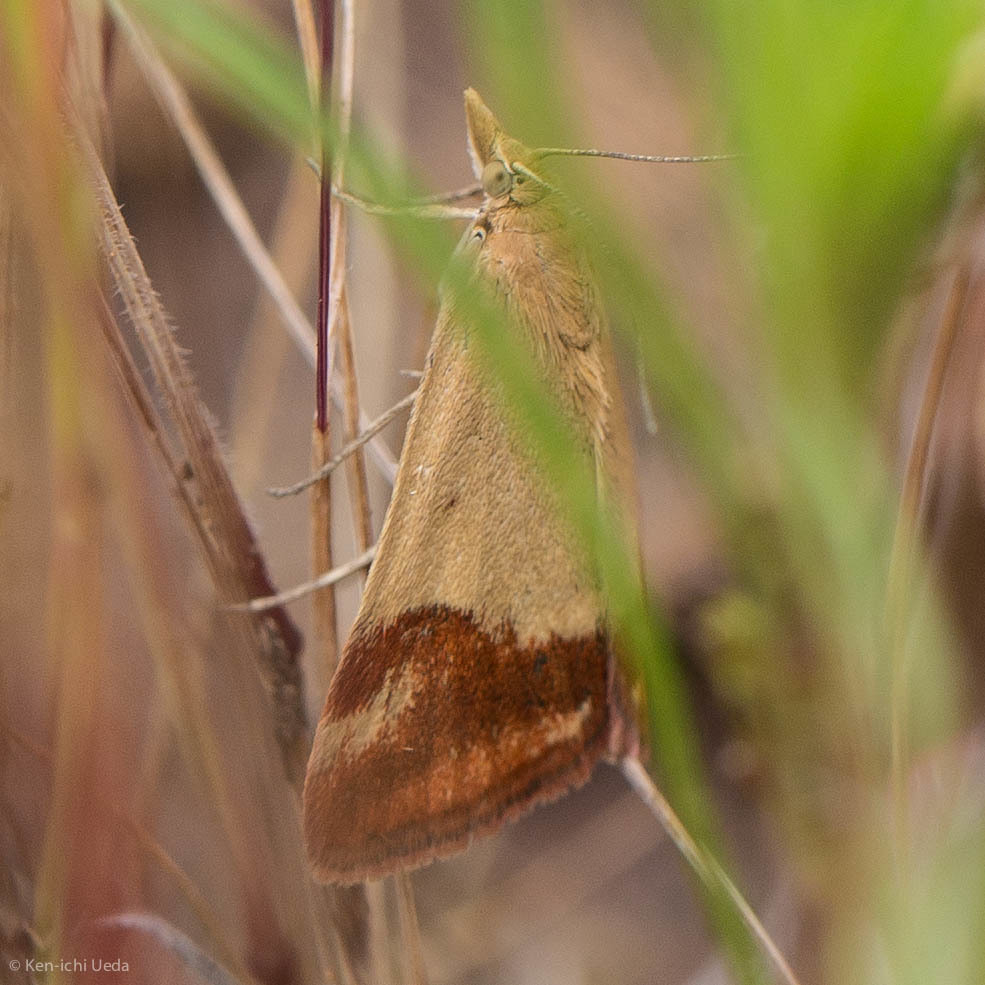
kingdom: Animalia
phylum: Arthropoda
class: Insecta
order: Lepidoptera
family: Crambidae
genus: Pyrausta
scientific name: Pyrausta semirubralis
